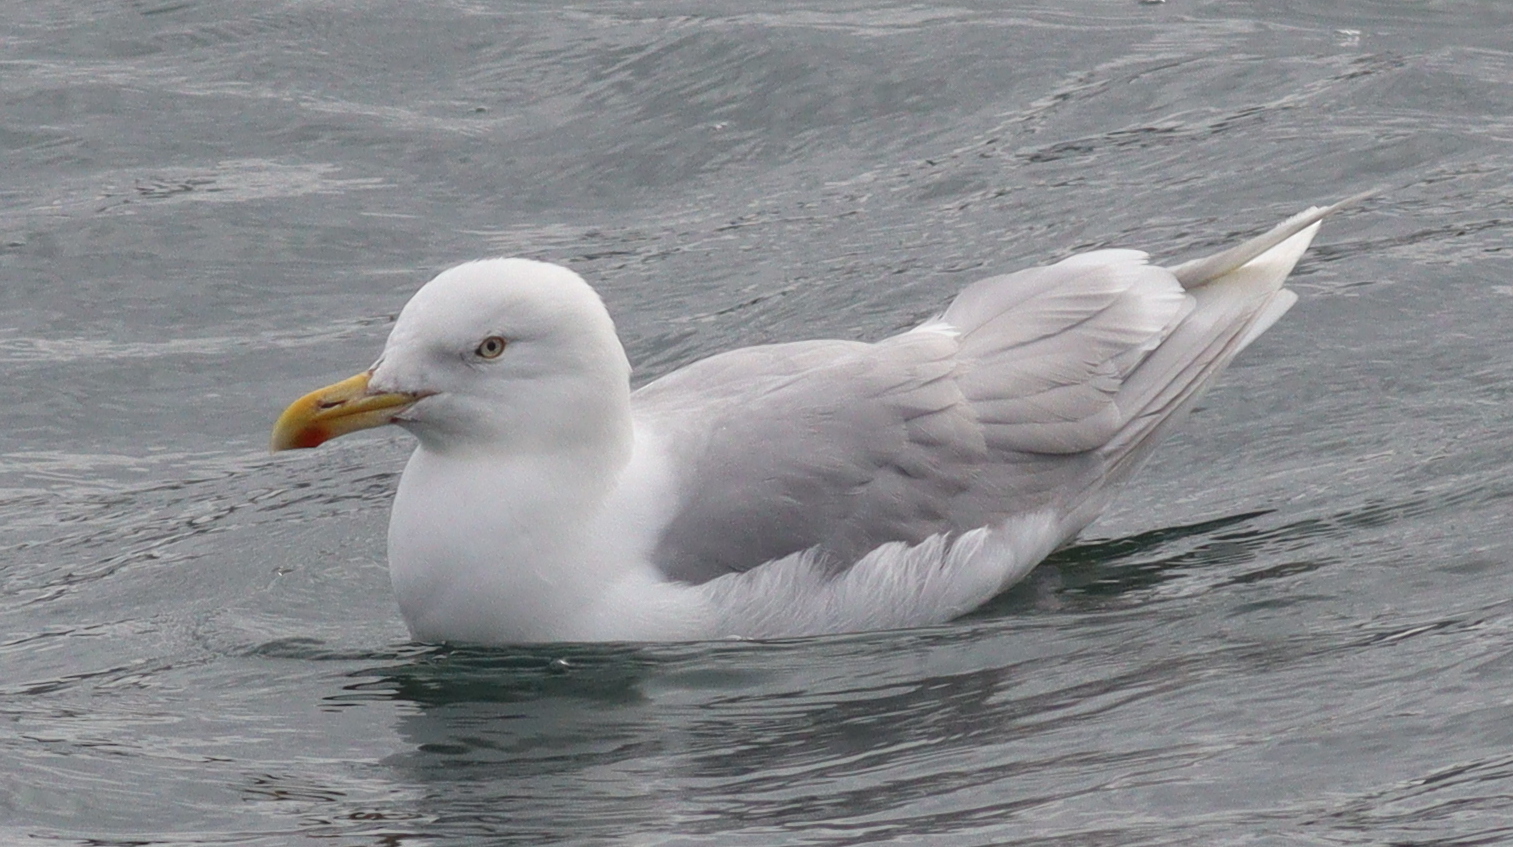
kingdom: Animalia
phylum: Chordata
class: Aves
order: Charadriiformes
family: Laridae
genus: Larus
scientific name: Larus hyperboreus
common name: Glaucous gull
